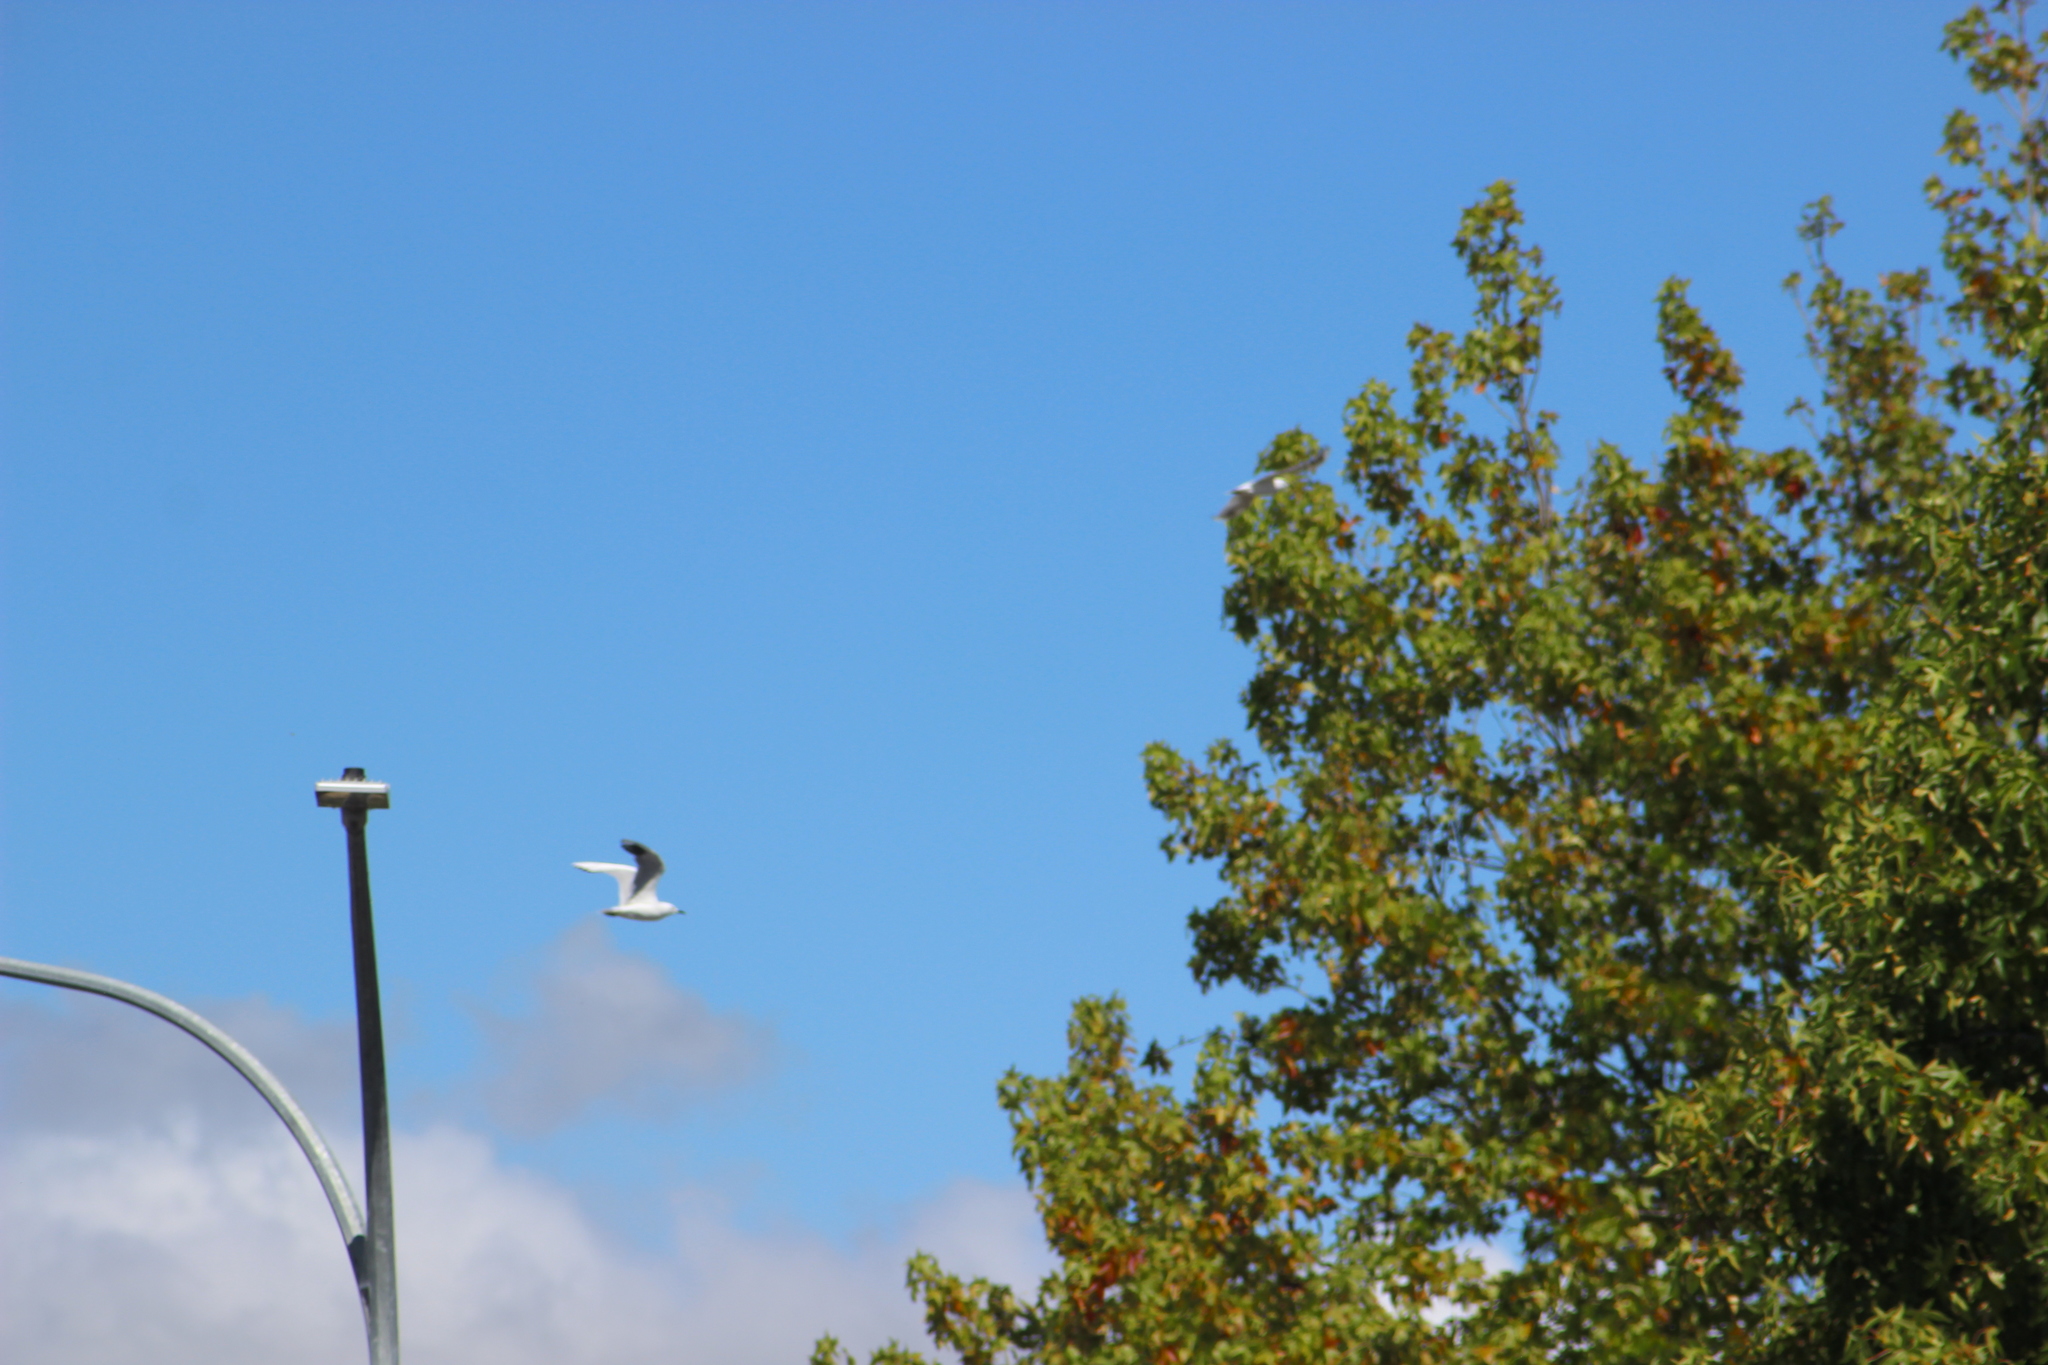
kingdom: Animalia
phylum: Chordata
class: Aves
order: Charadriiformes
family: Laridae
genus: Chroicocephalus
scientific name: Chroicocephalus bulleri
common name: Black-billed gull
